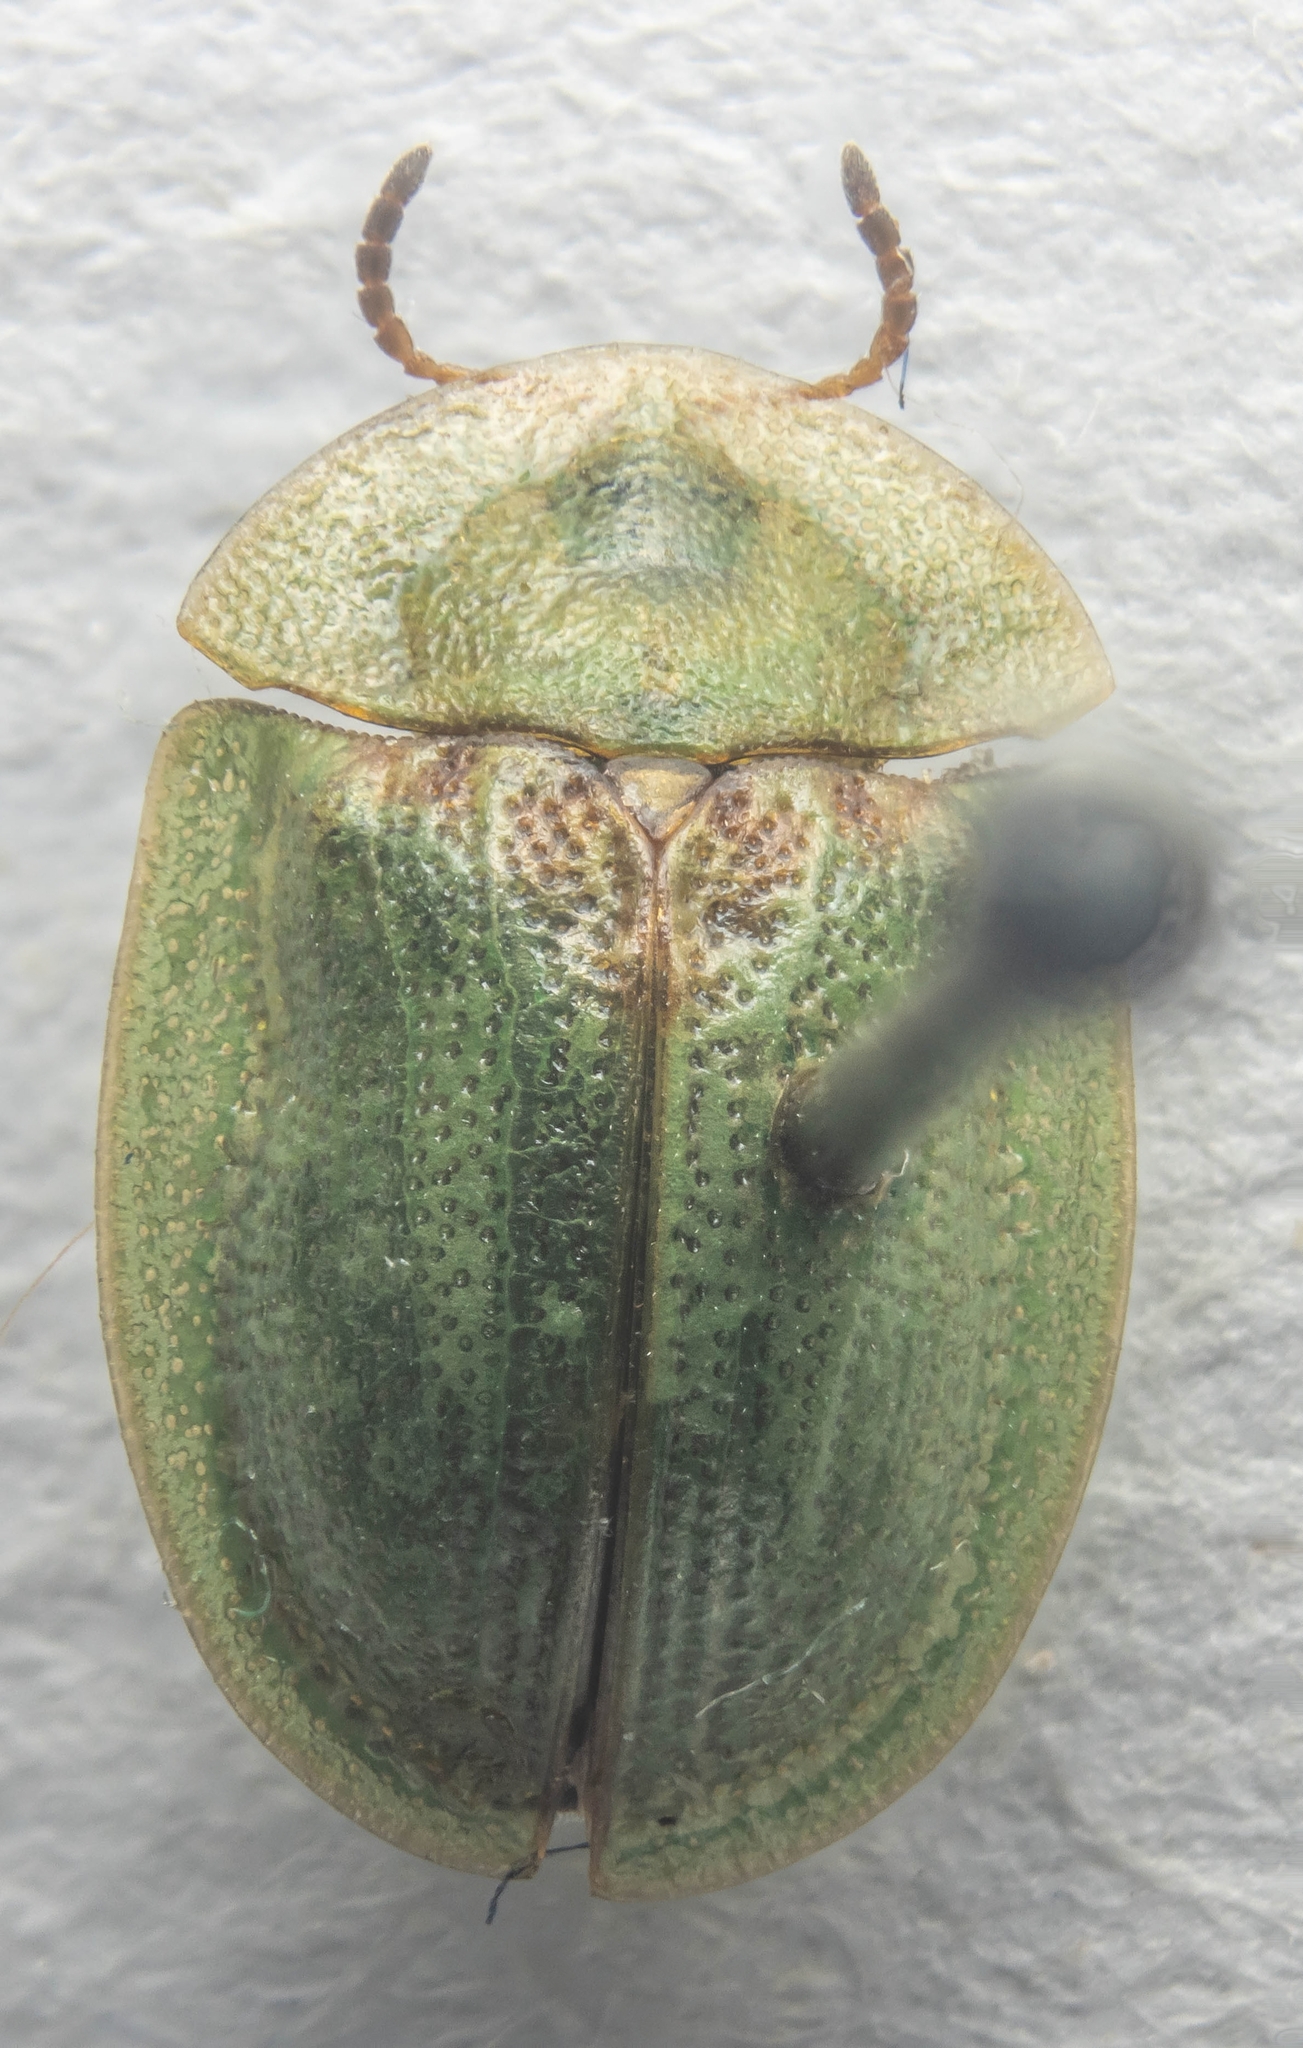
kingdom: Animalia
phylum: Arthropoda
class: Insecta
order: Coleoptera
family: Chrysomelidae
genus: Cassida
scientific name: Cassida rubiginosa
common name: Thistle tortoise beetle
